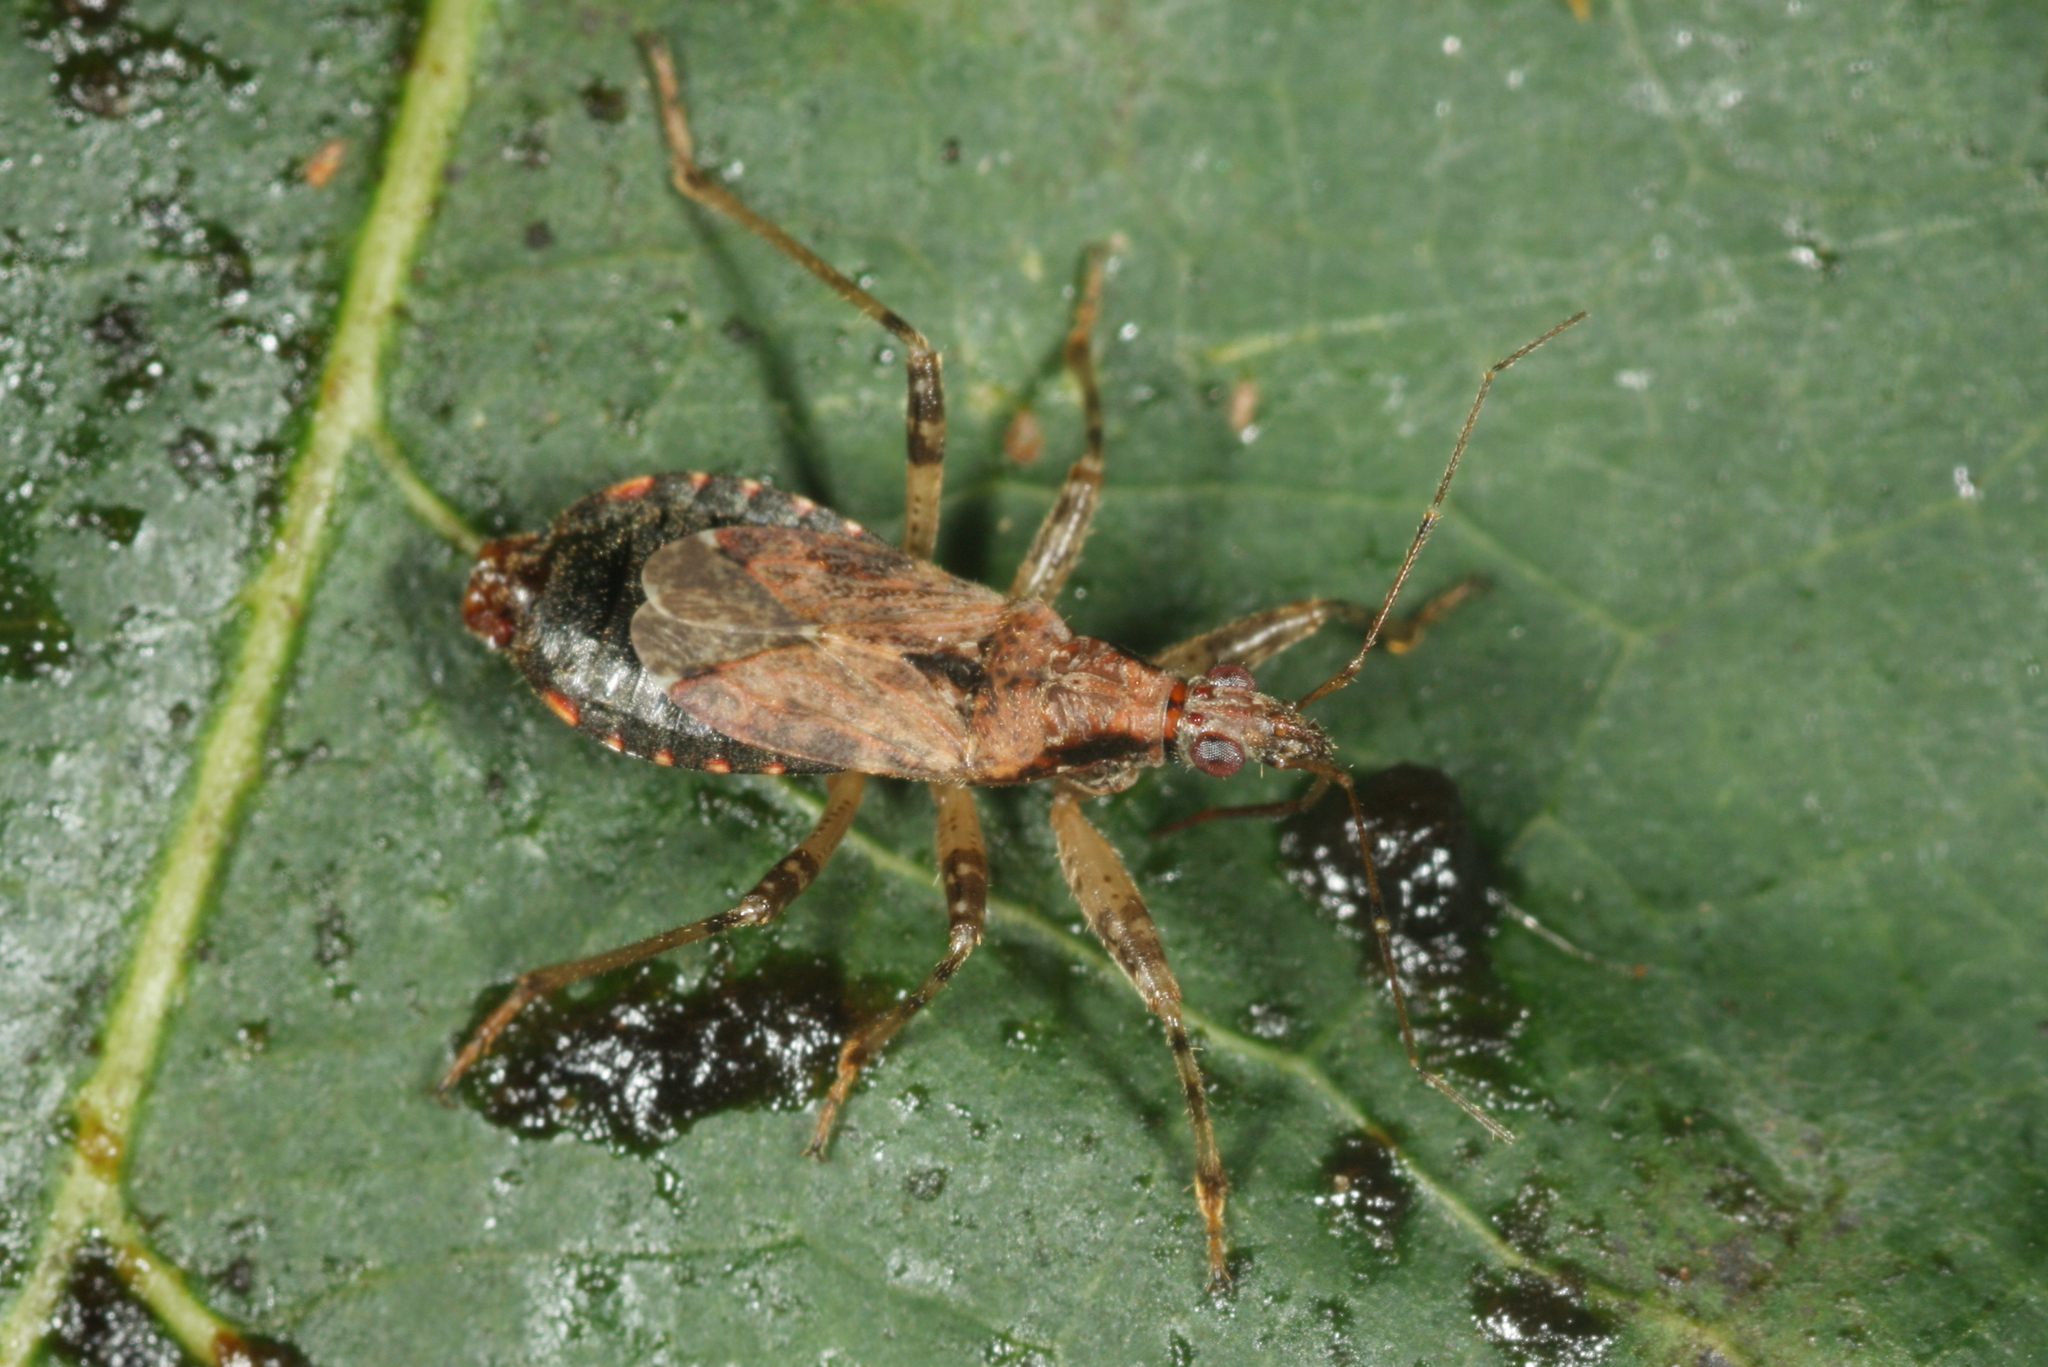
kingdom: Animalia
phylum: Arthropoda
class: Insecta
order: Hemiptera
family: Nabidae
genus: Himacerus
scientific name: Himacerus mirmicoides
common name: Ant damsel bug
